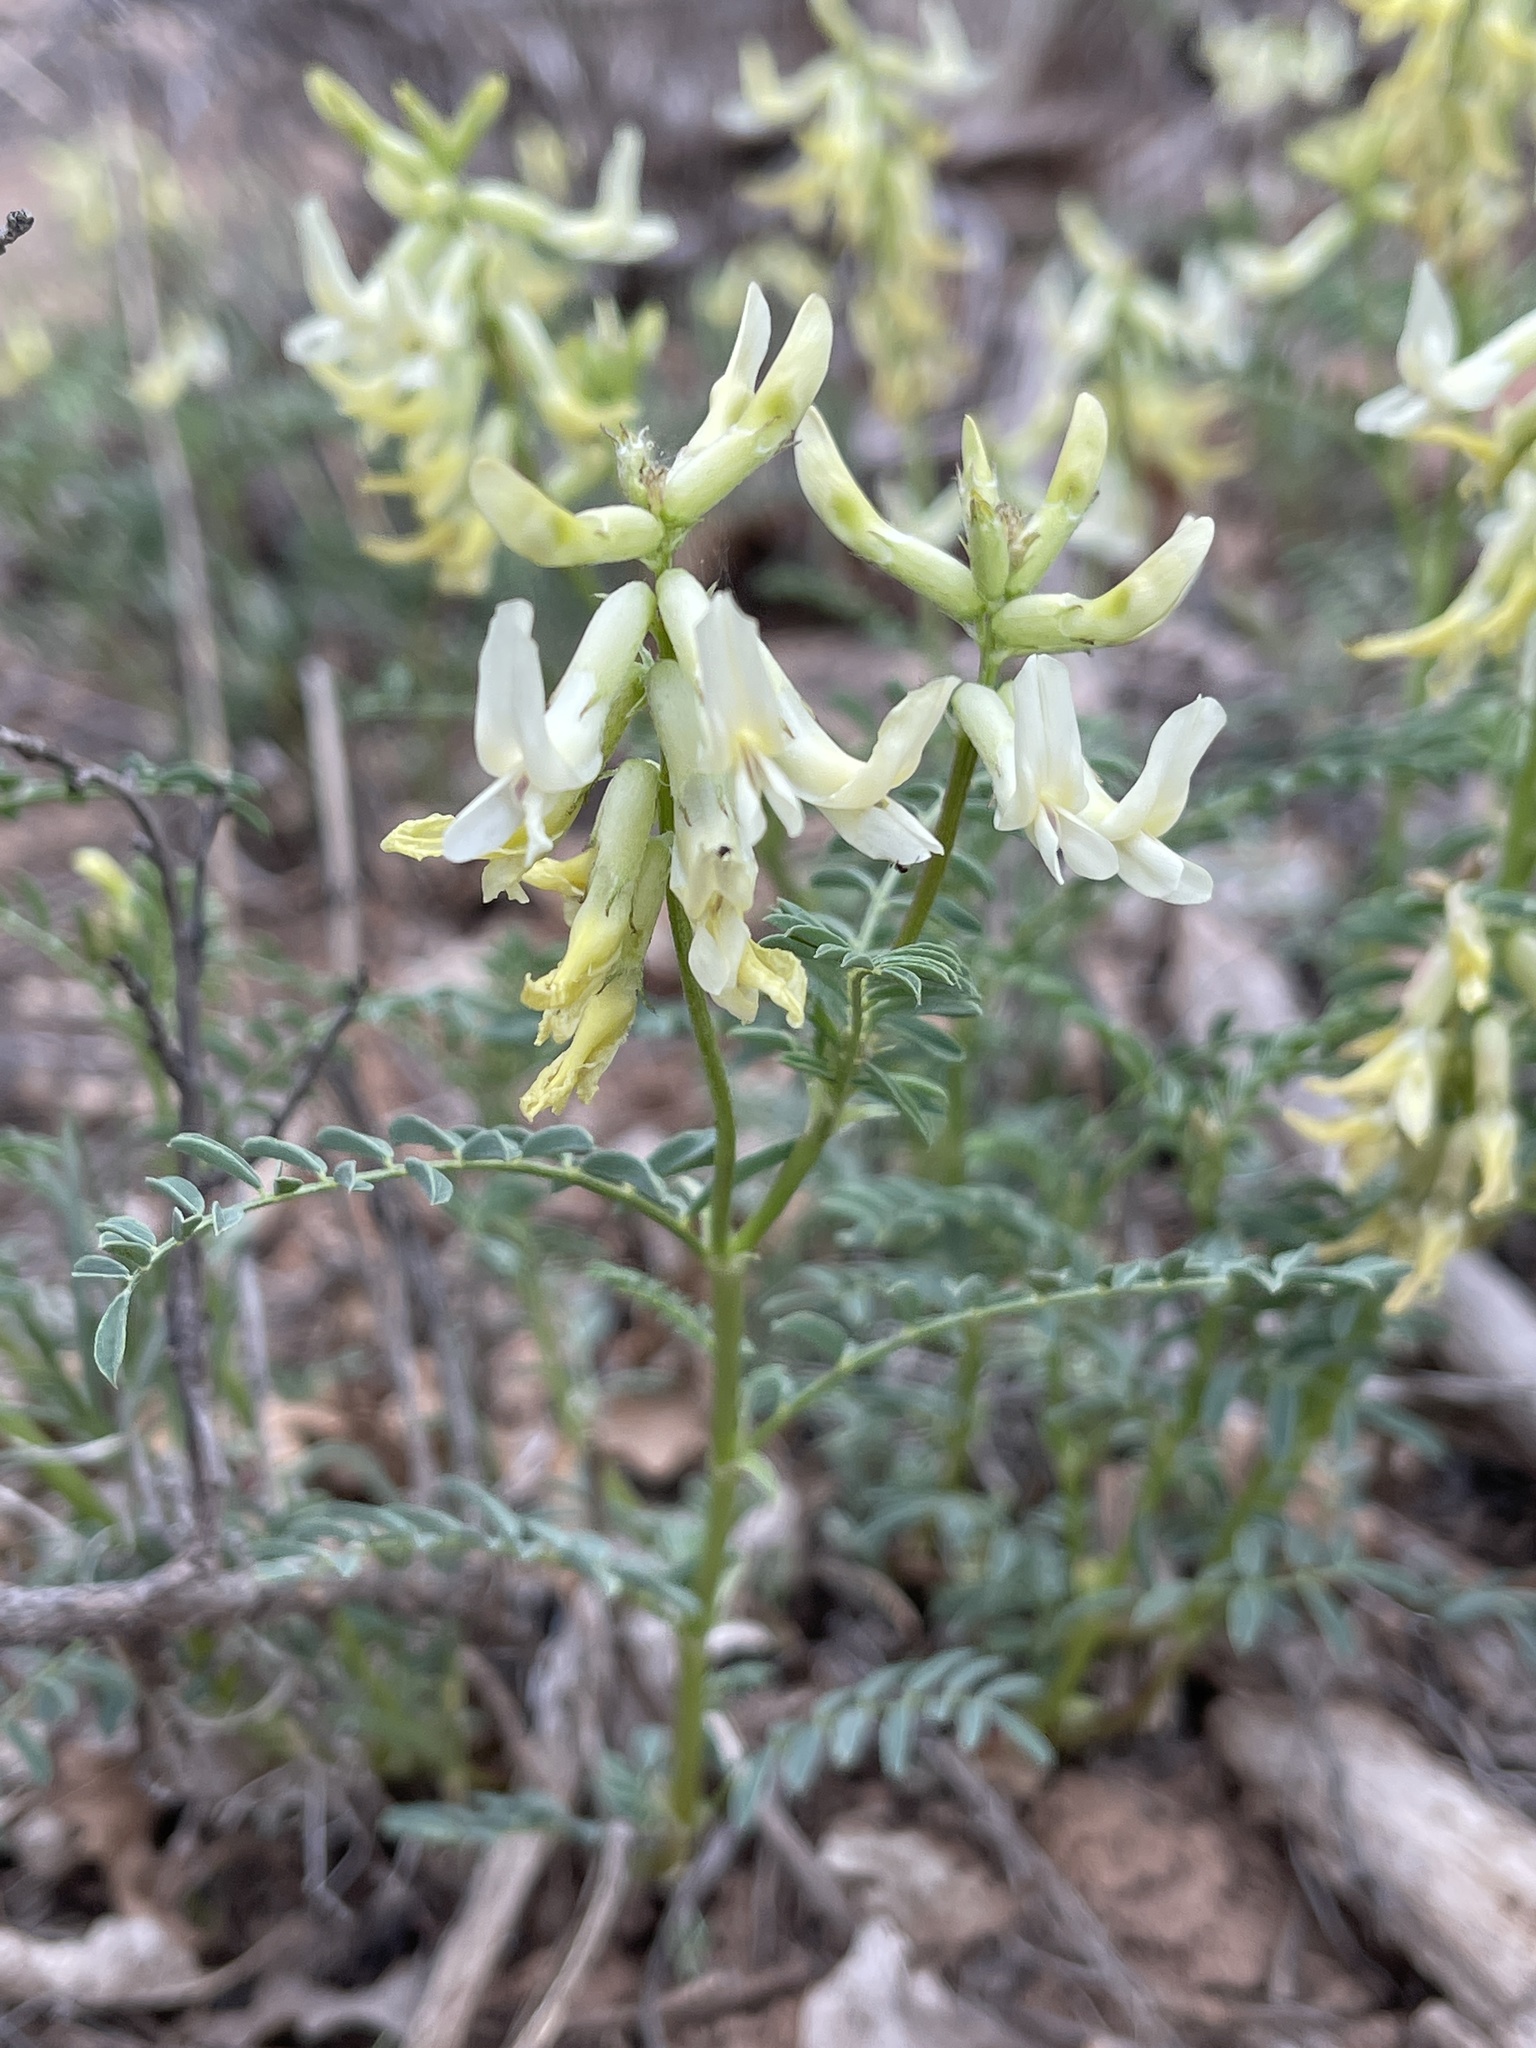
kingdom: Plantae
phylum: Tracheophyta
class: Magnoliopsida
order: Fabales
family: Fabaceae
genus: Astragalus
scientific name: Astragalus scopulorum
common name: Rocky mountain milk-vetch
